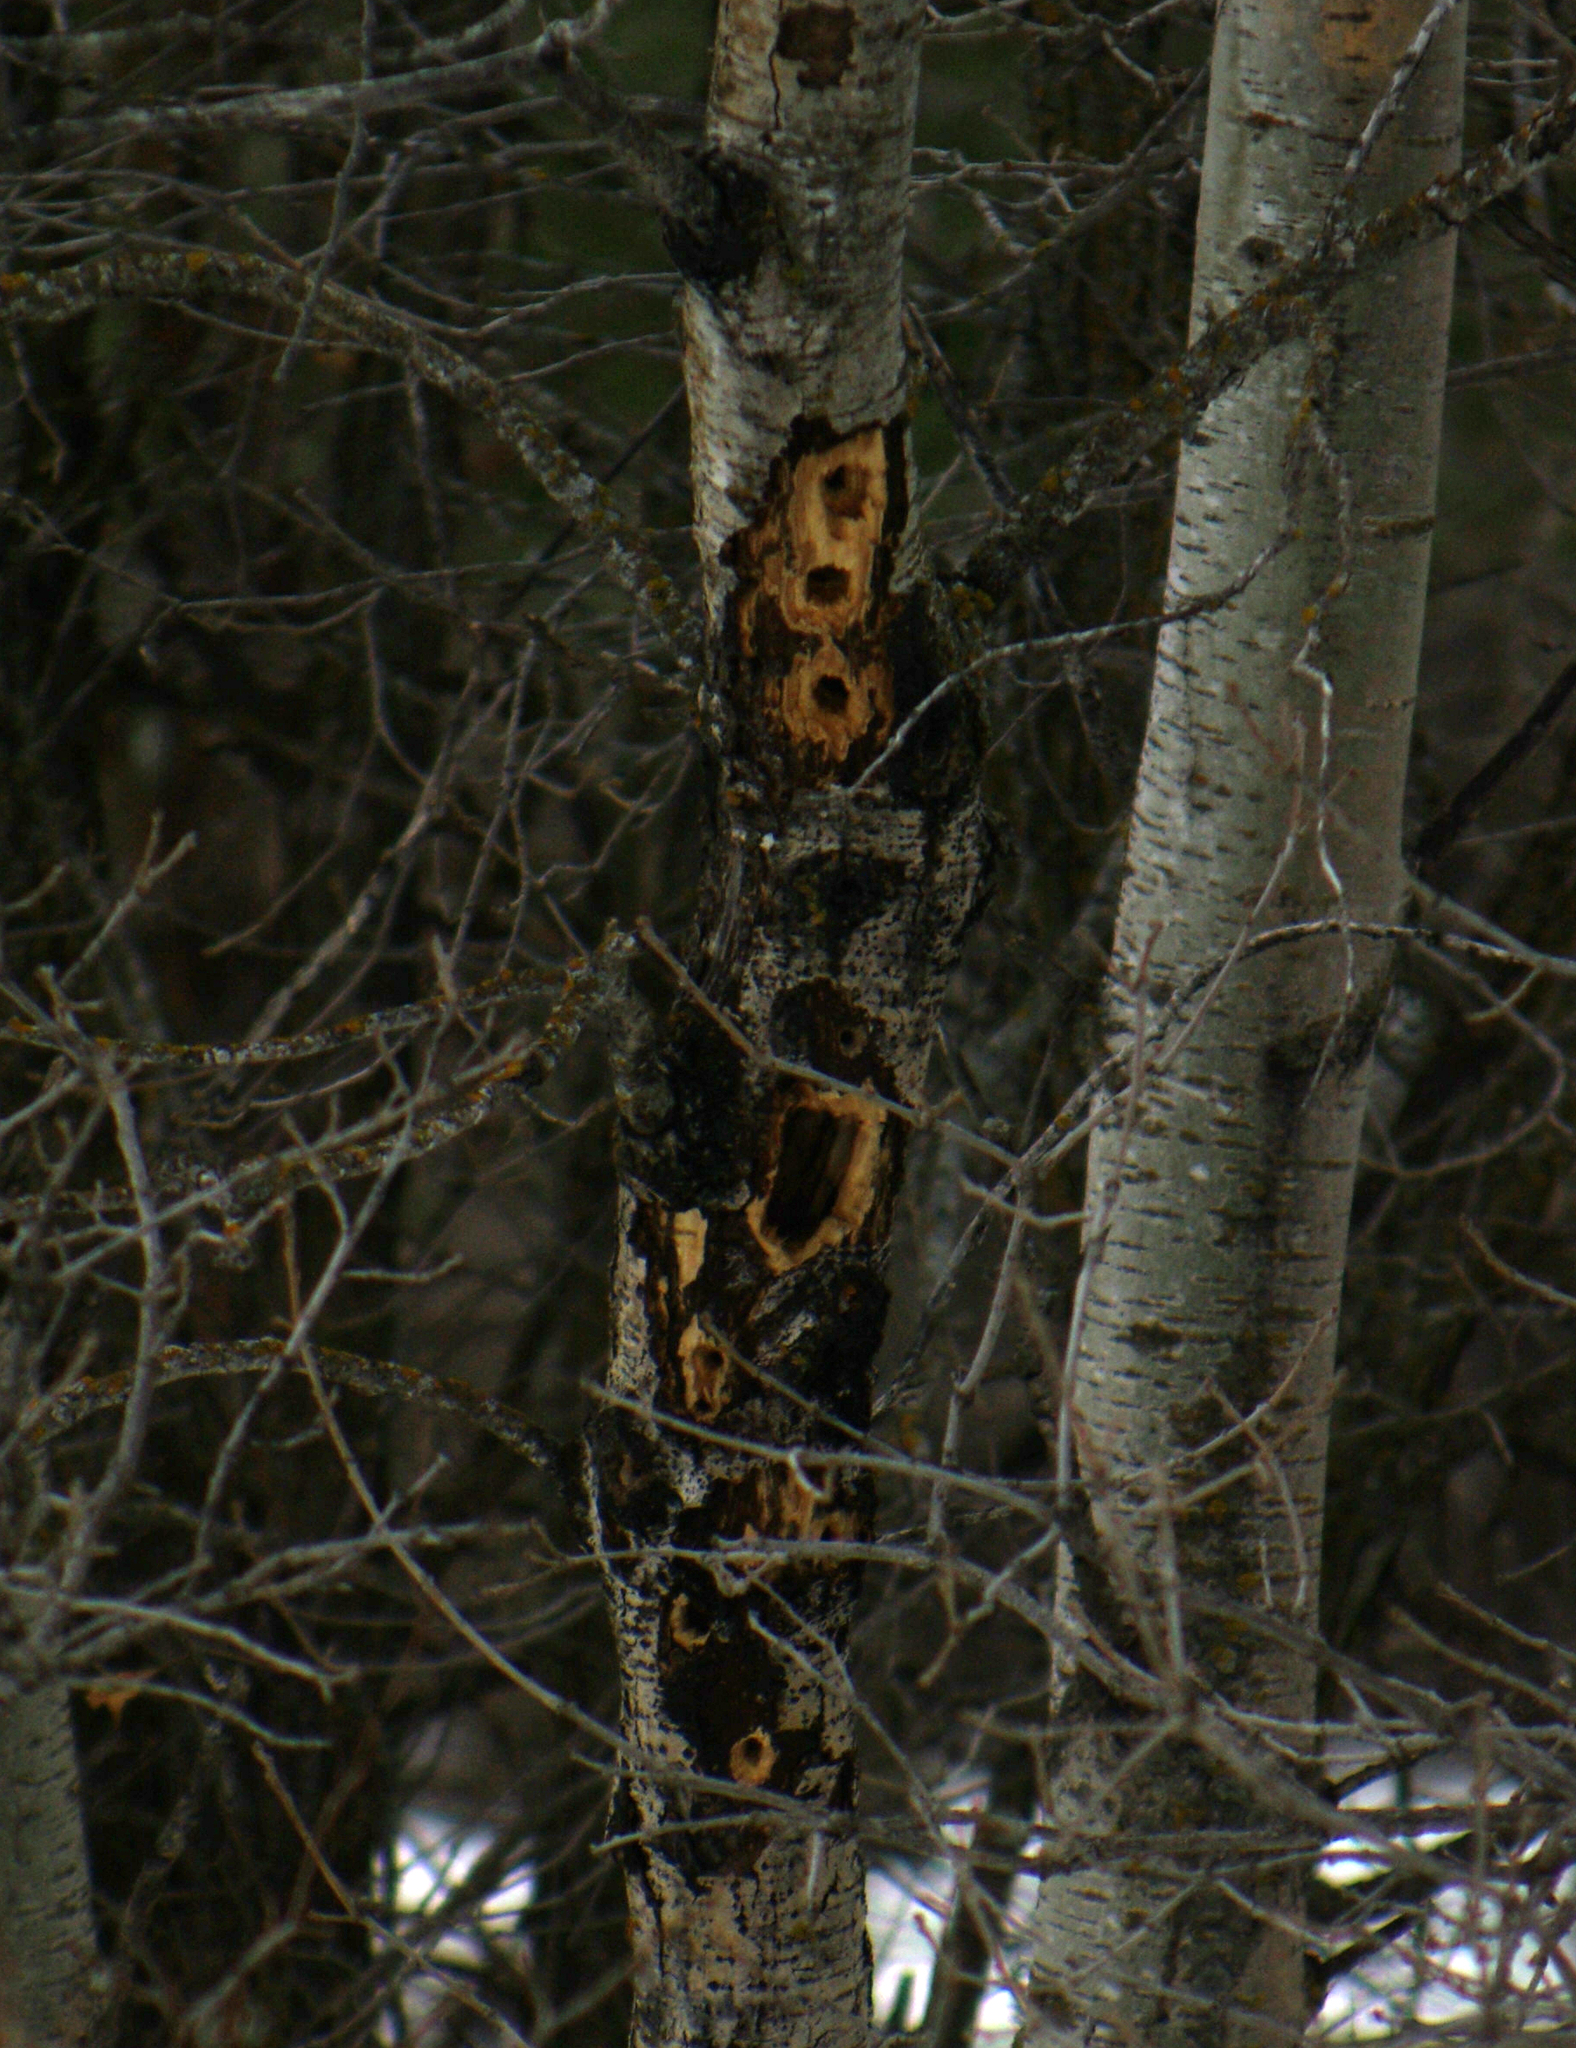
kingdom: Animalia
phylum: Chordata
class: Aves
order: Piciformes
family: Picidae
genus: Dryocopus
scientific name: Dryocopus pileatus
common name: Pileated woodpecker
